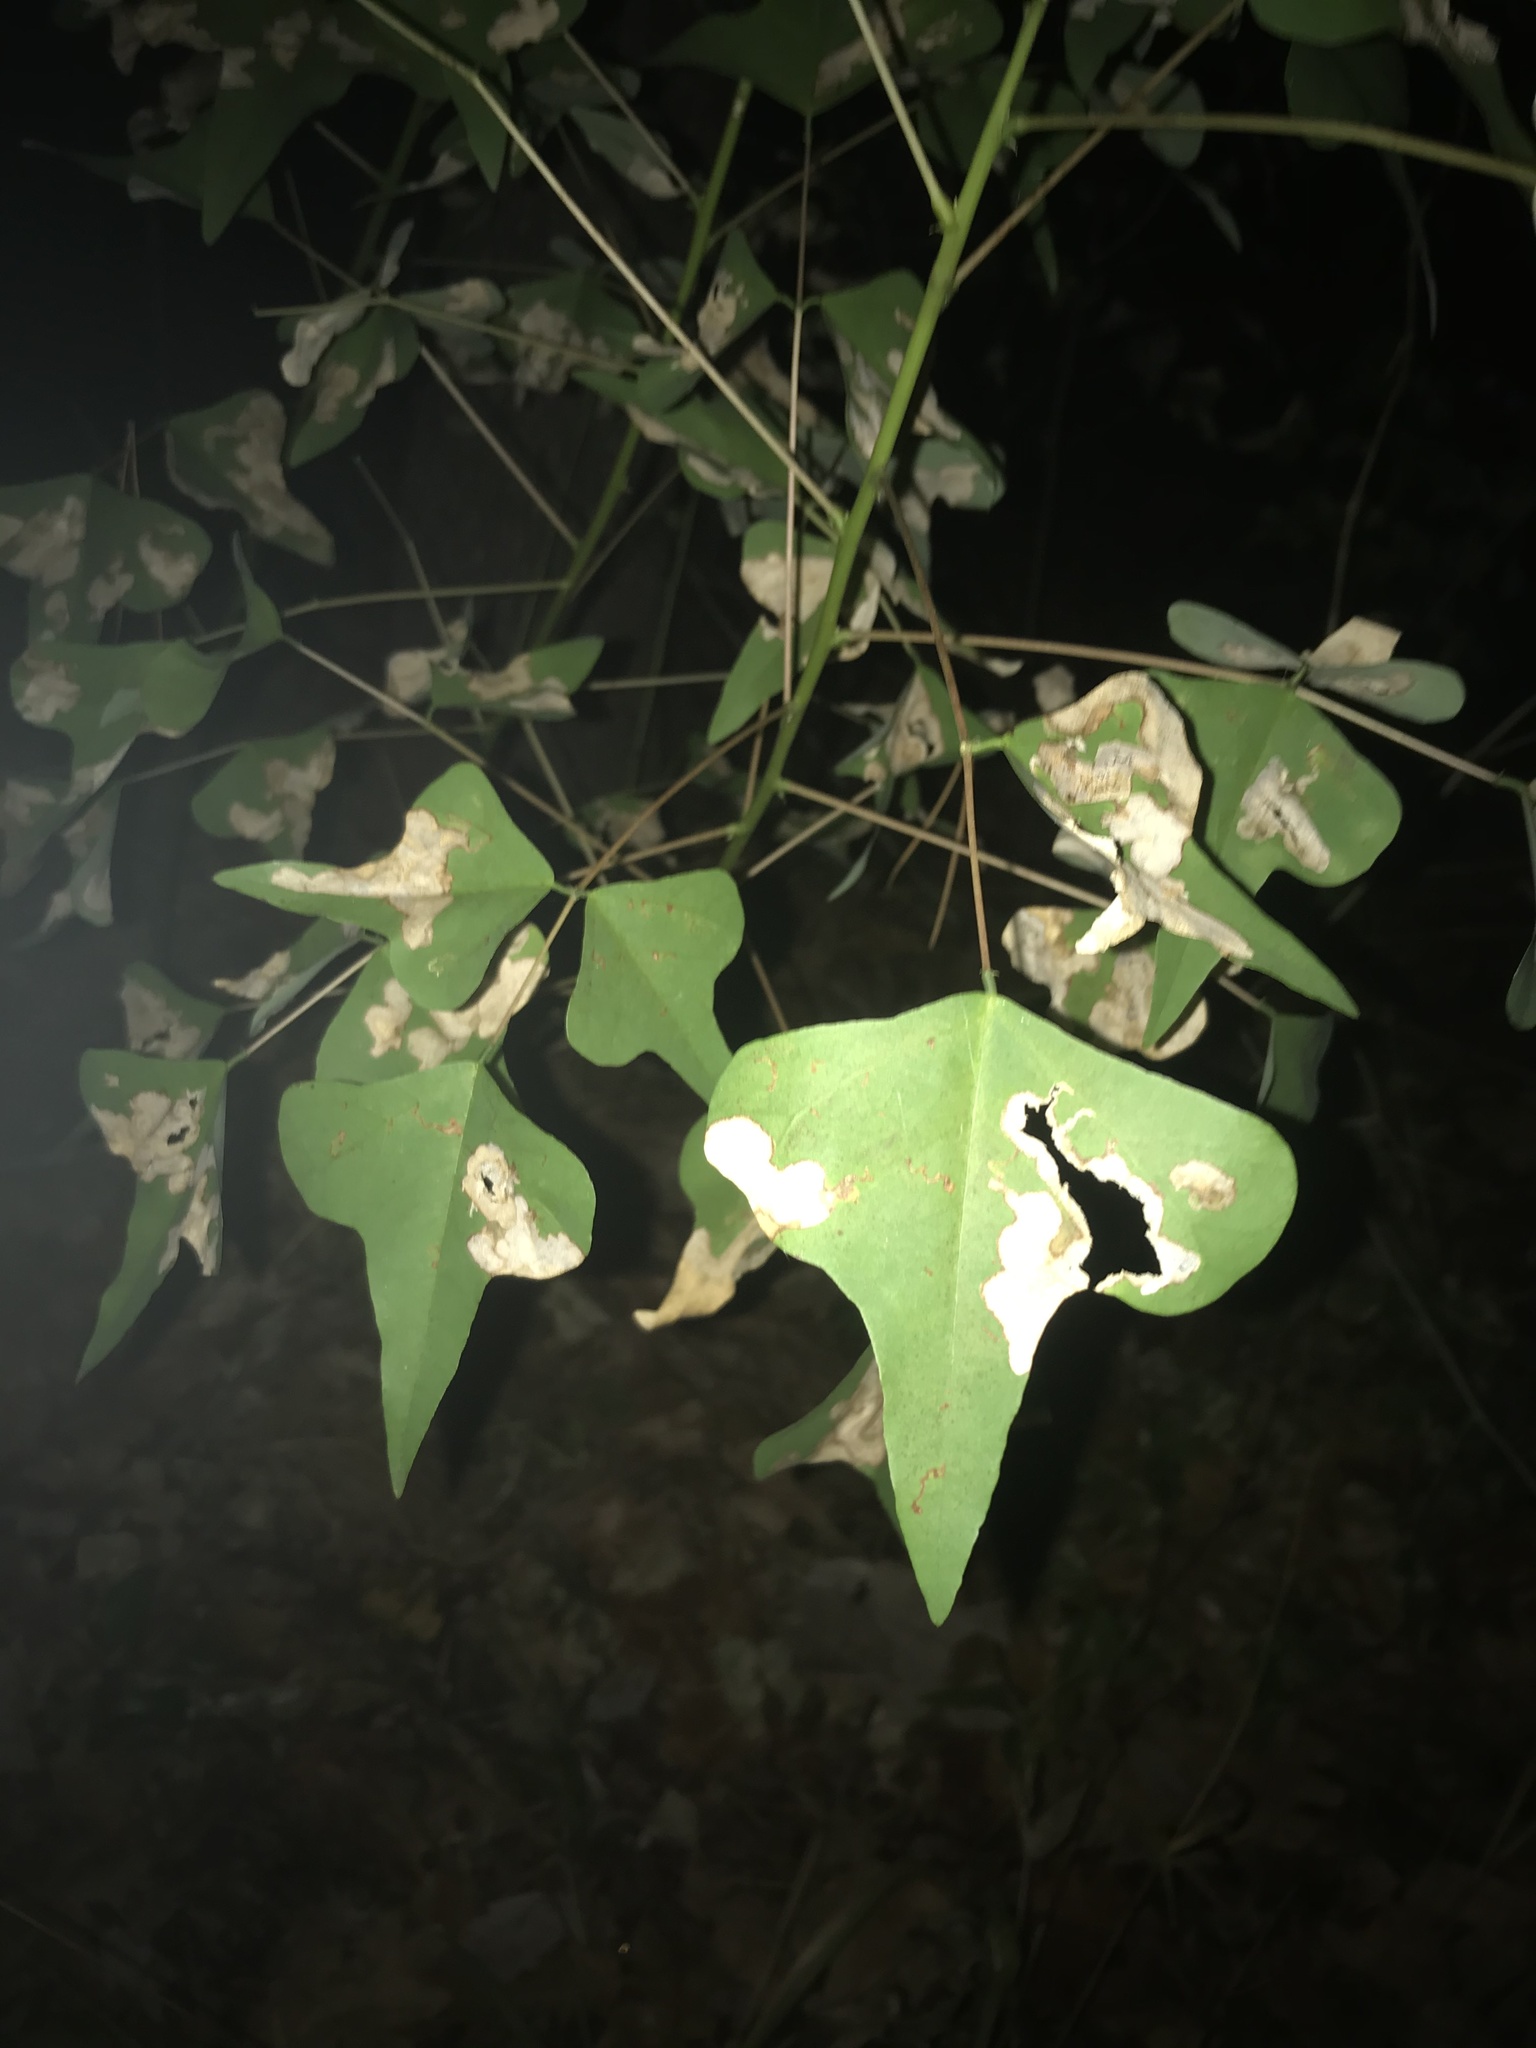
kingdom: Plantae
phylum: Tracheophyta
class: Magnoliopsida
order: Fabales
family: Fabaceae
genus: Erythrina
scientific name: Erythrina herbacea
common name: Coral-bean
